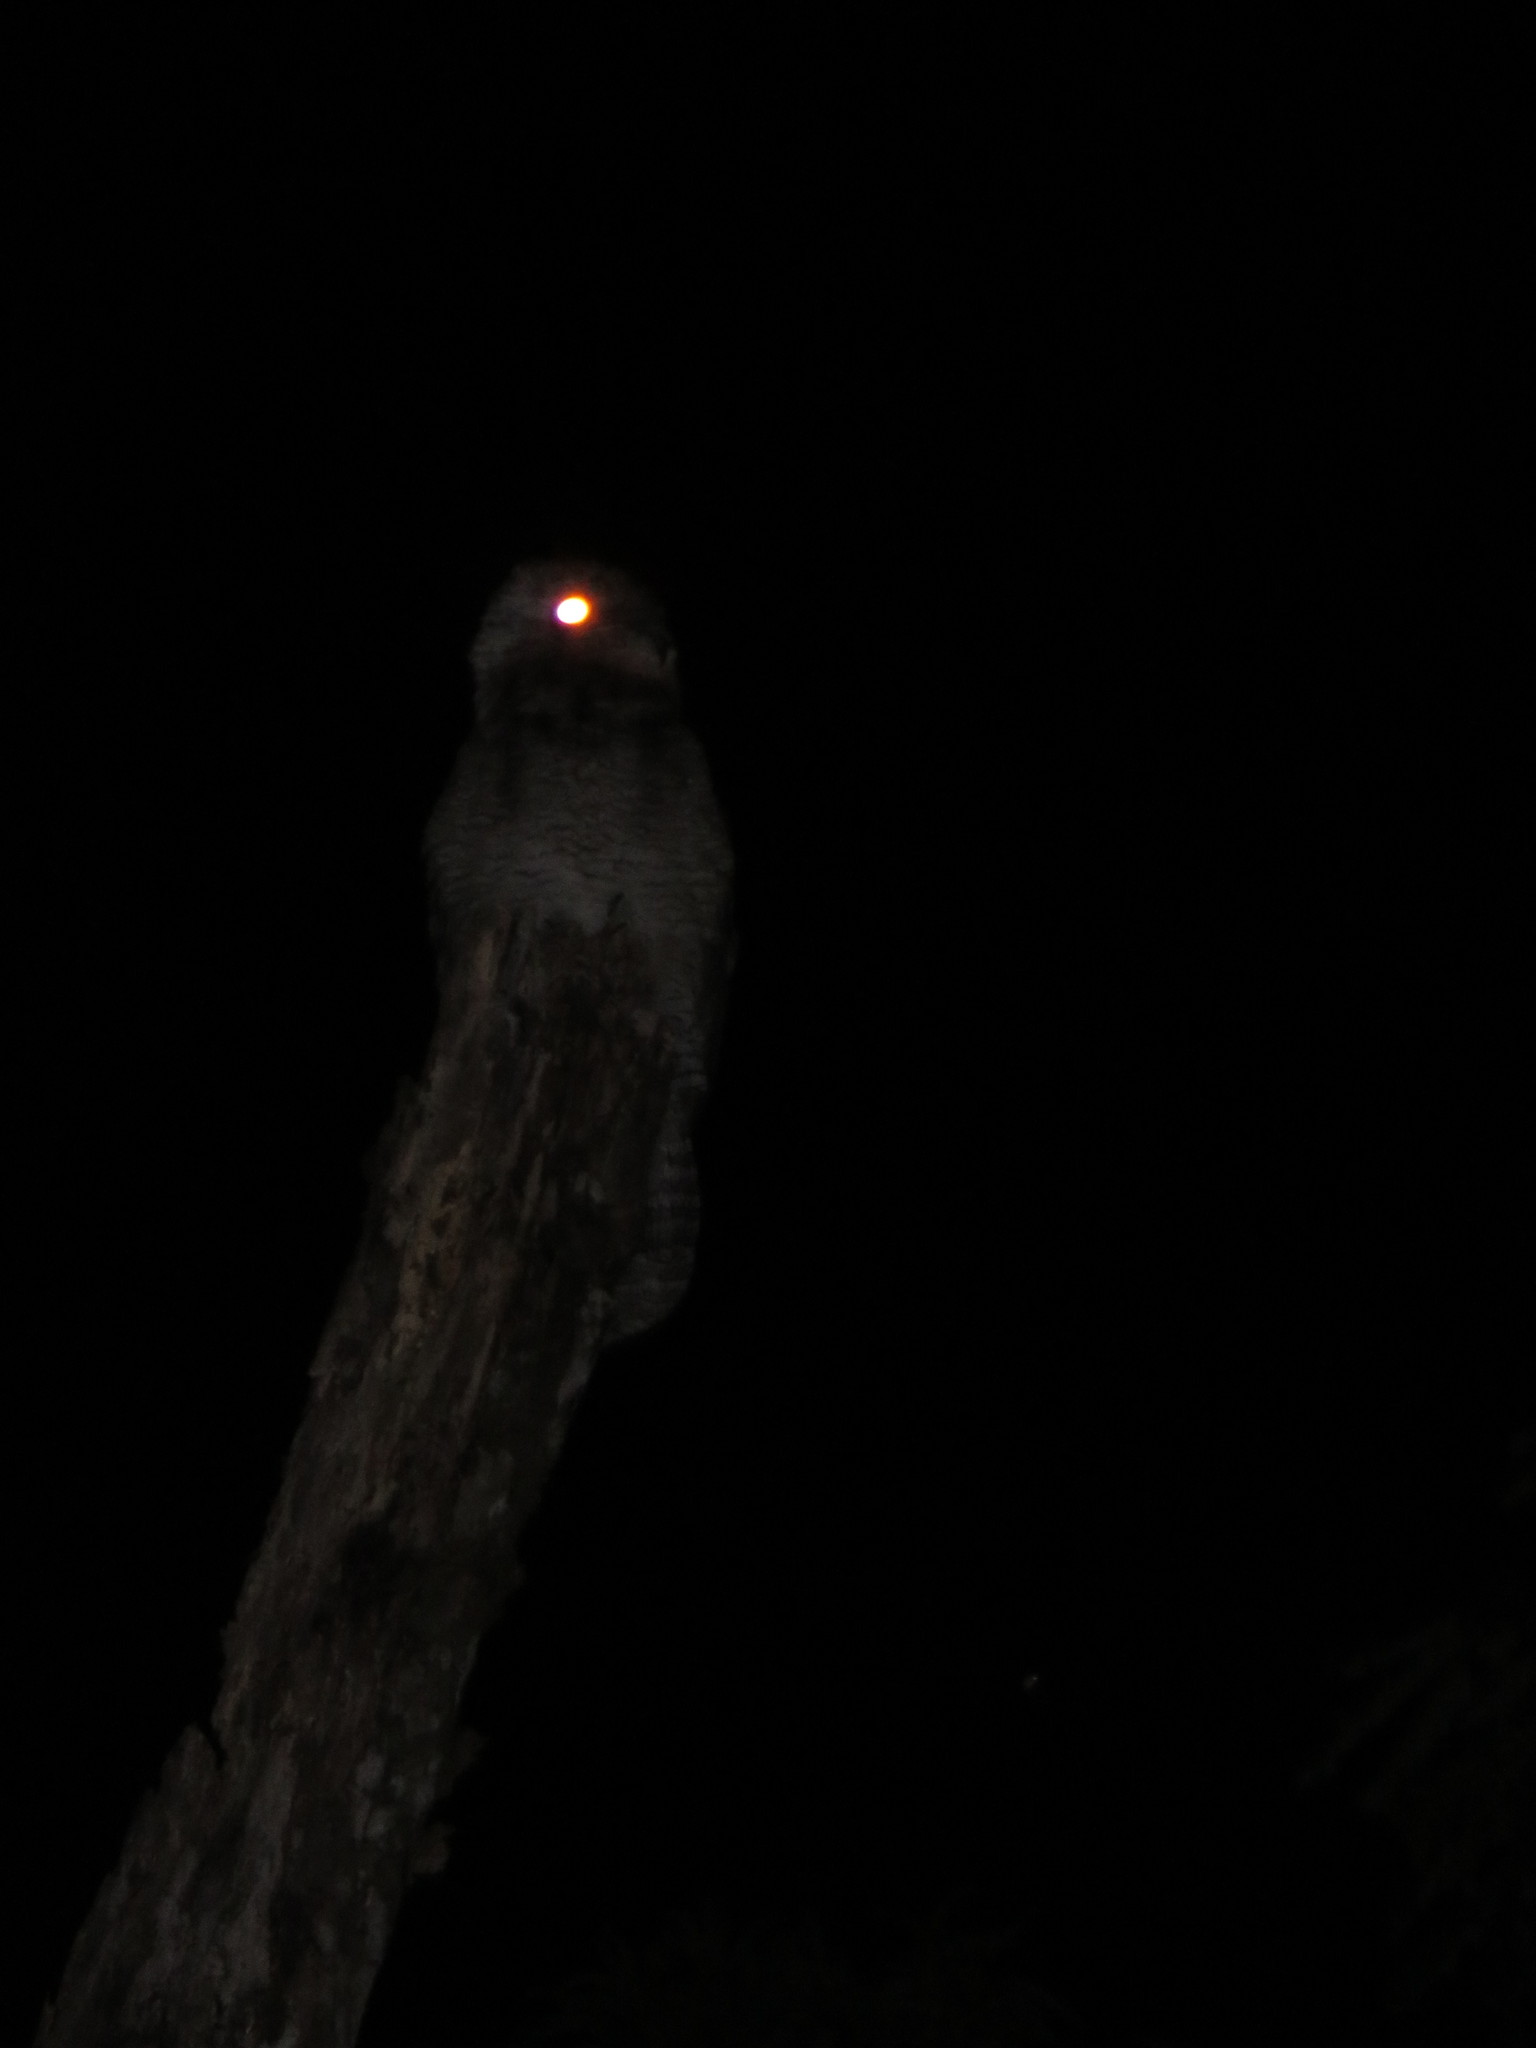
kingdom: Animalia
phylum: Chordata
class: Aves
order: Nyctibiiformes
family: Nyctibiidae
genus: Nyctibius
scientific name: Nyctibius grandis
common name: Great potoo
